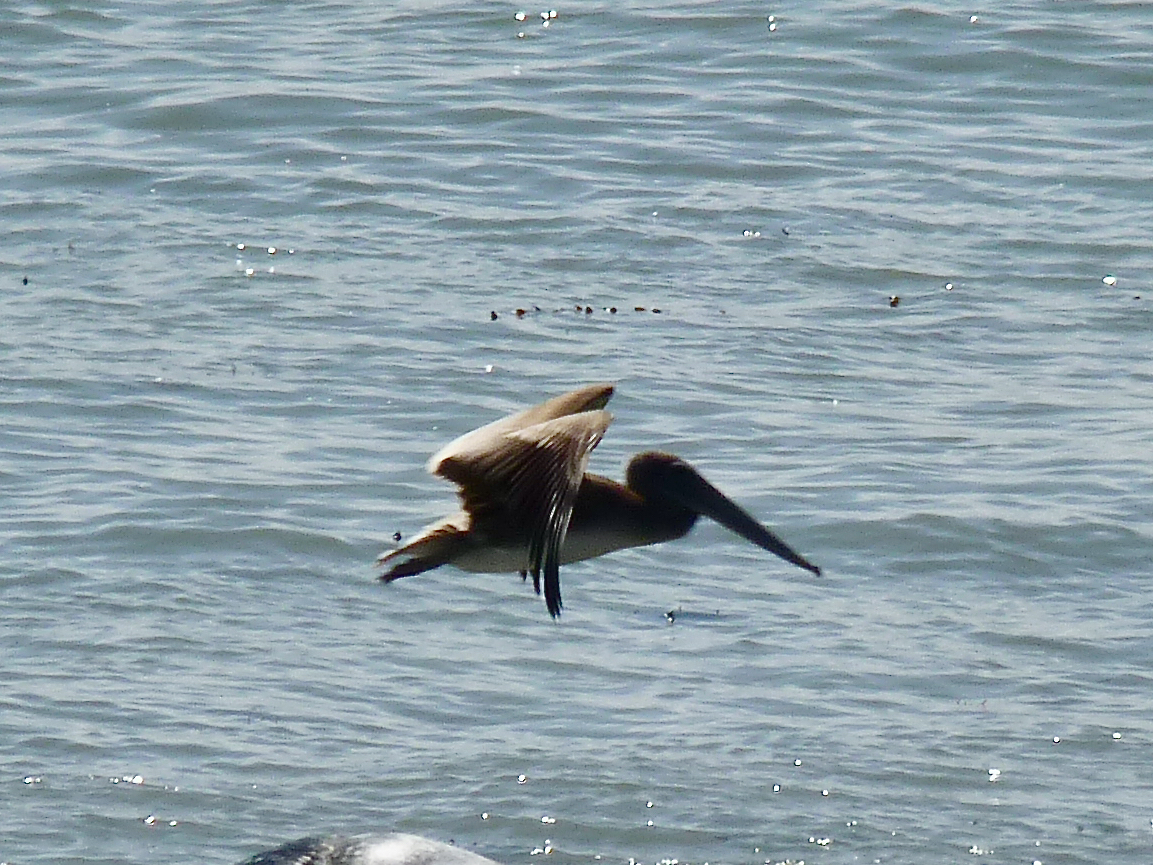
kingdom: Animalia
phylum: Chordata
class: Aves
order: Pelecaniformes
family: Pelecanidae
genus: Pelecanus
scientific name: Pelecanus occidentalis
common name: Brown pelican
